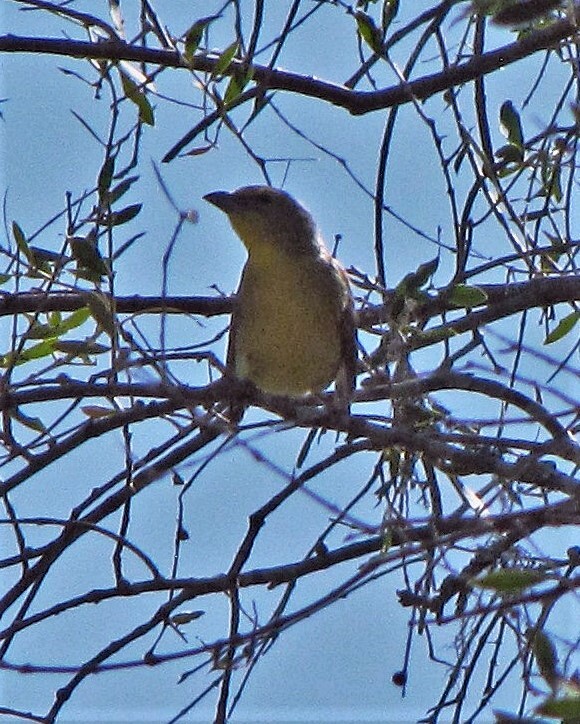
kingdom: Animalia
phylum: Chordata
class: Aves
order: Passeriformes
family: Cardinalidae
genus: Piranga
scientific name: Piranga flava
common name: Red tanager
